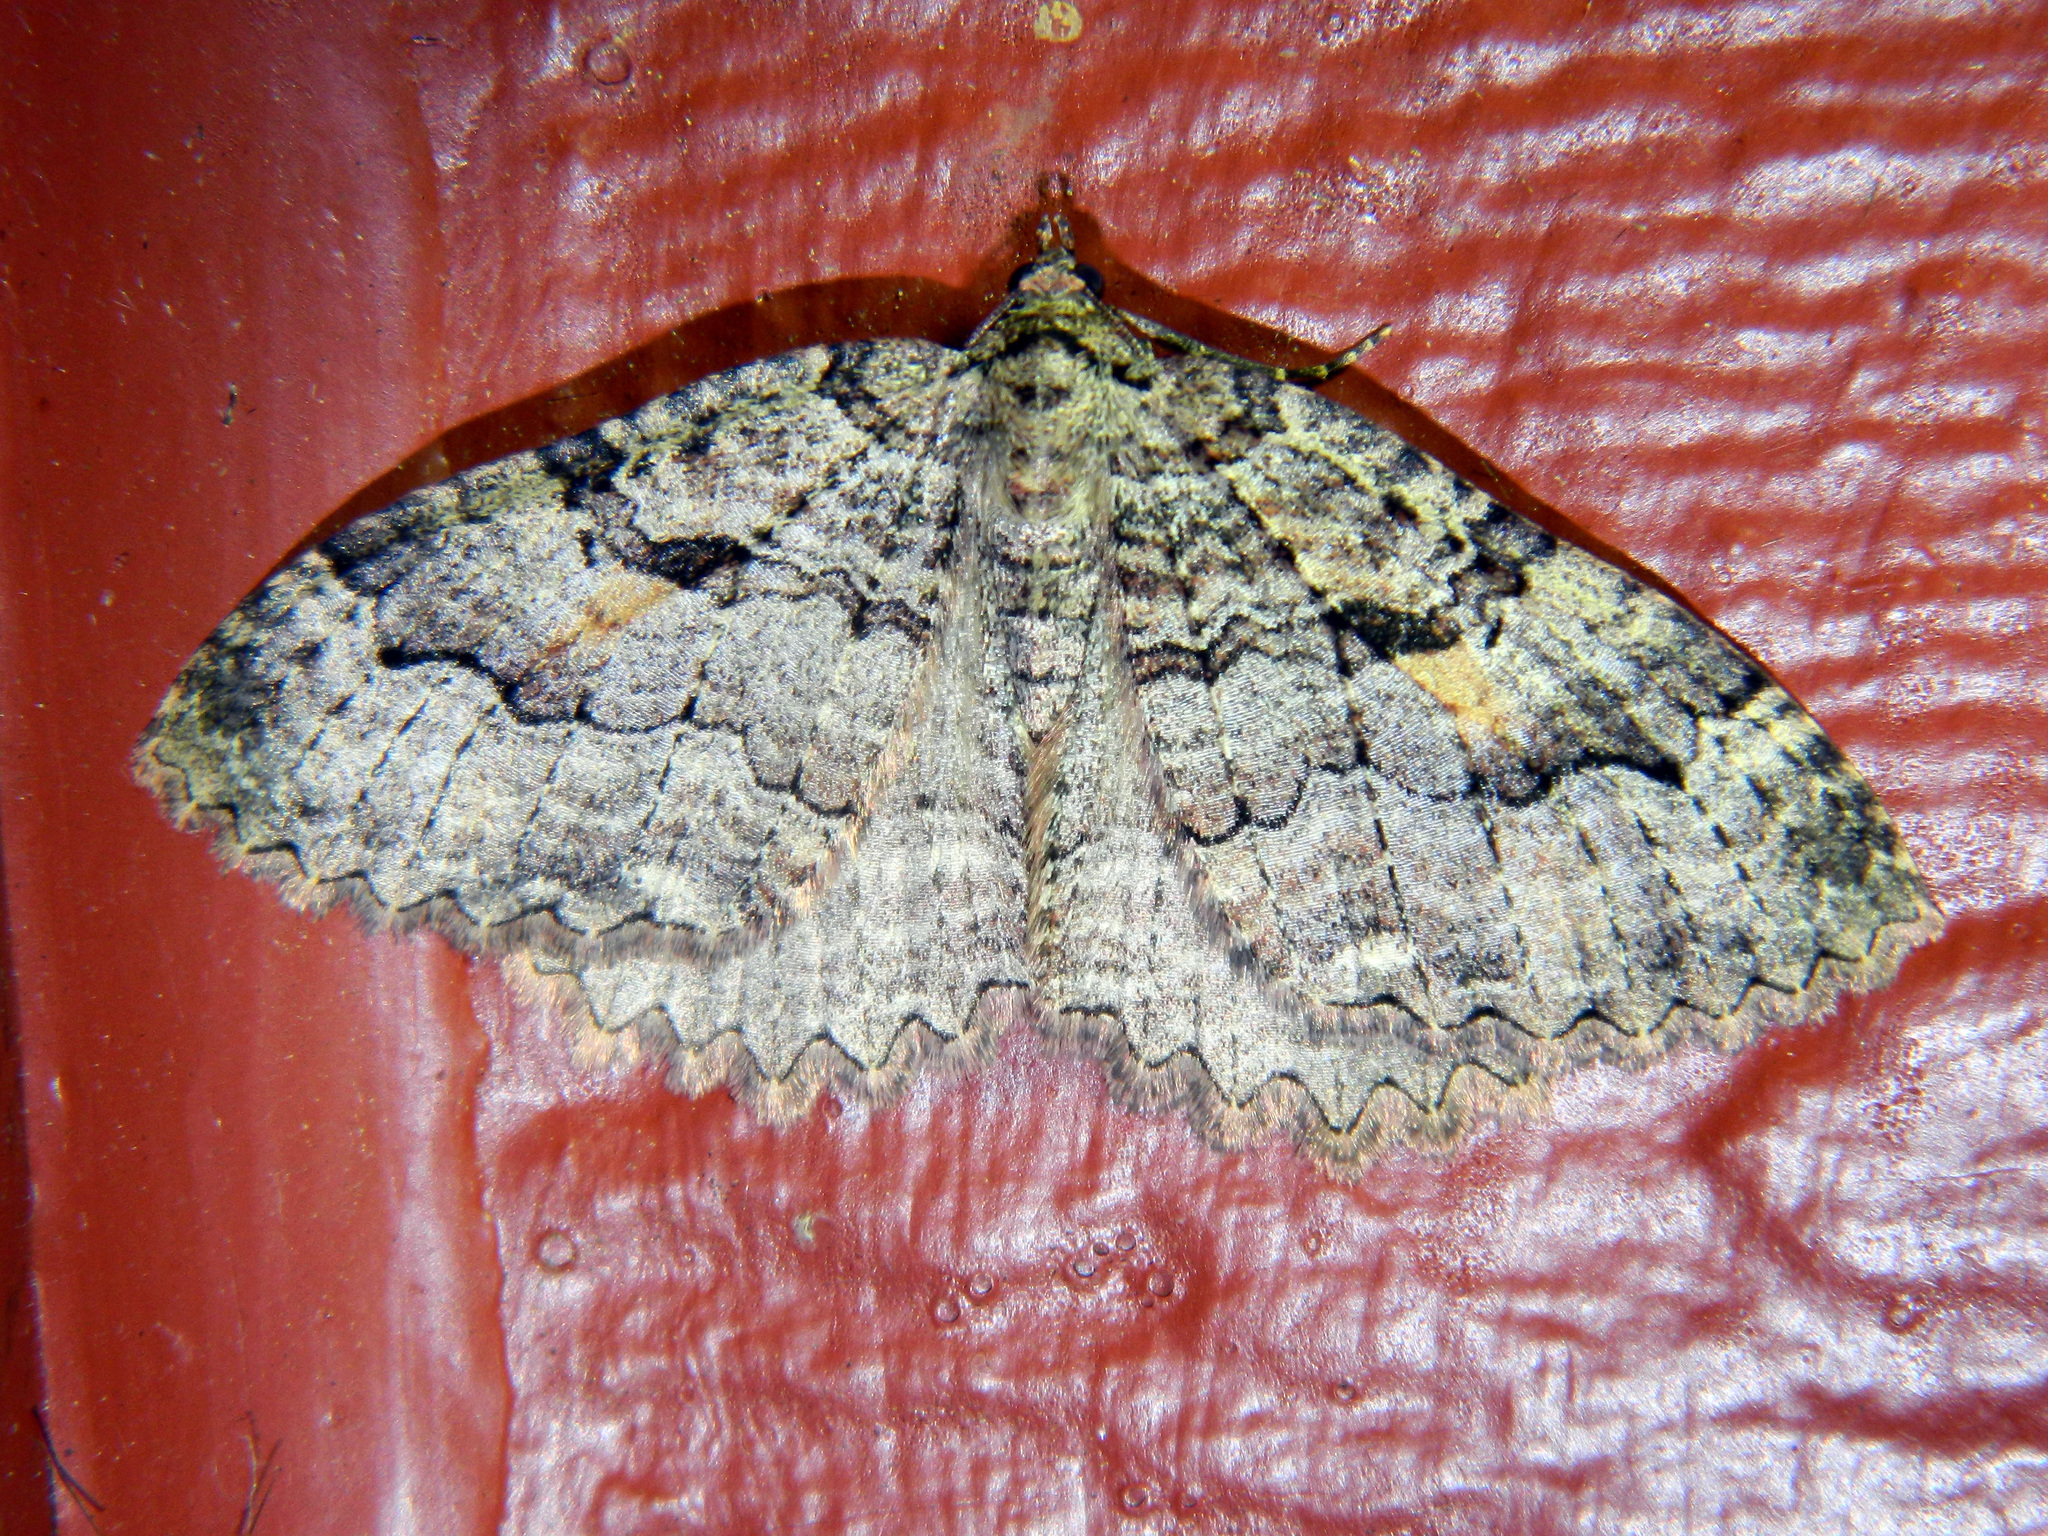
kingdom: Animalia
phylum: Arthropoda
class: Insecta
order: Lepidoptera
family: Geometridae
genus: Triphosa
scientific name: Triphosa haesitata
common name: Tissue moth
